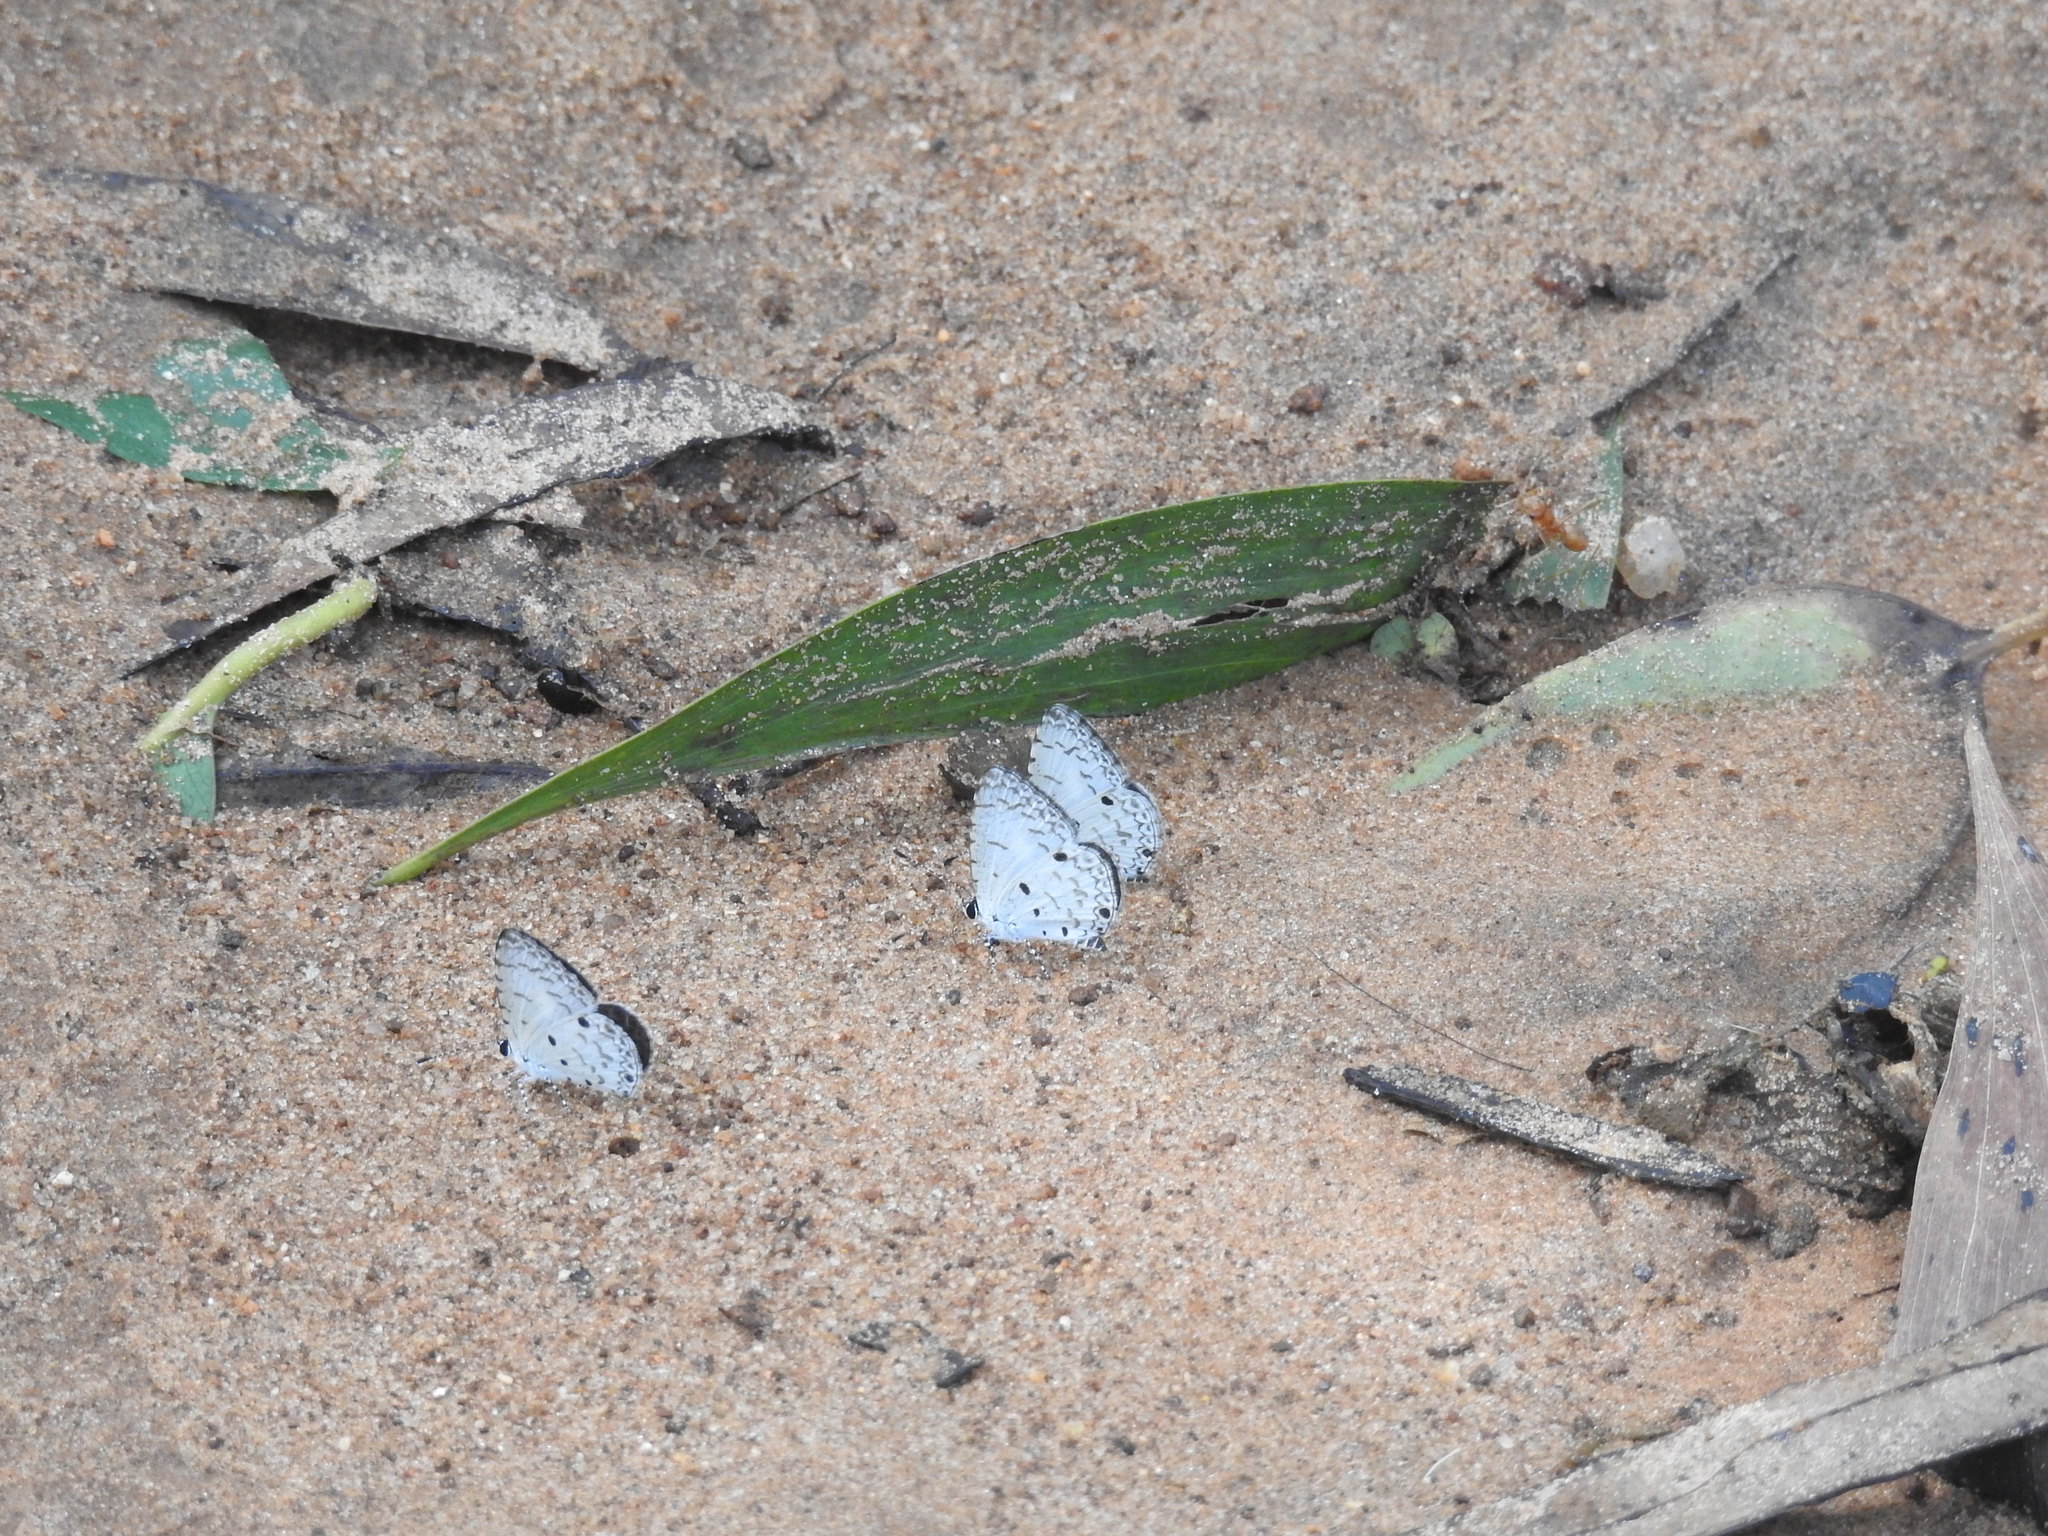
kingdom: Animalia
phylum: Arthropoda
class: Insecta
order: Lepidoptera
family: Lycaenidae
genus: Megisba
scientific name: Megisba malaya
